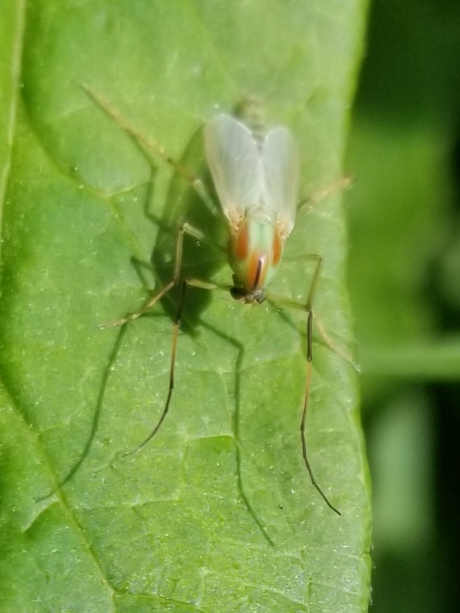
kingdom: Animalia
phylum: Arthropoda
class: Insecta
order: Diptera
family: Chironomidae
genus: Axarus
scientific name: Axarus
